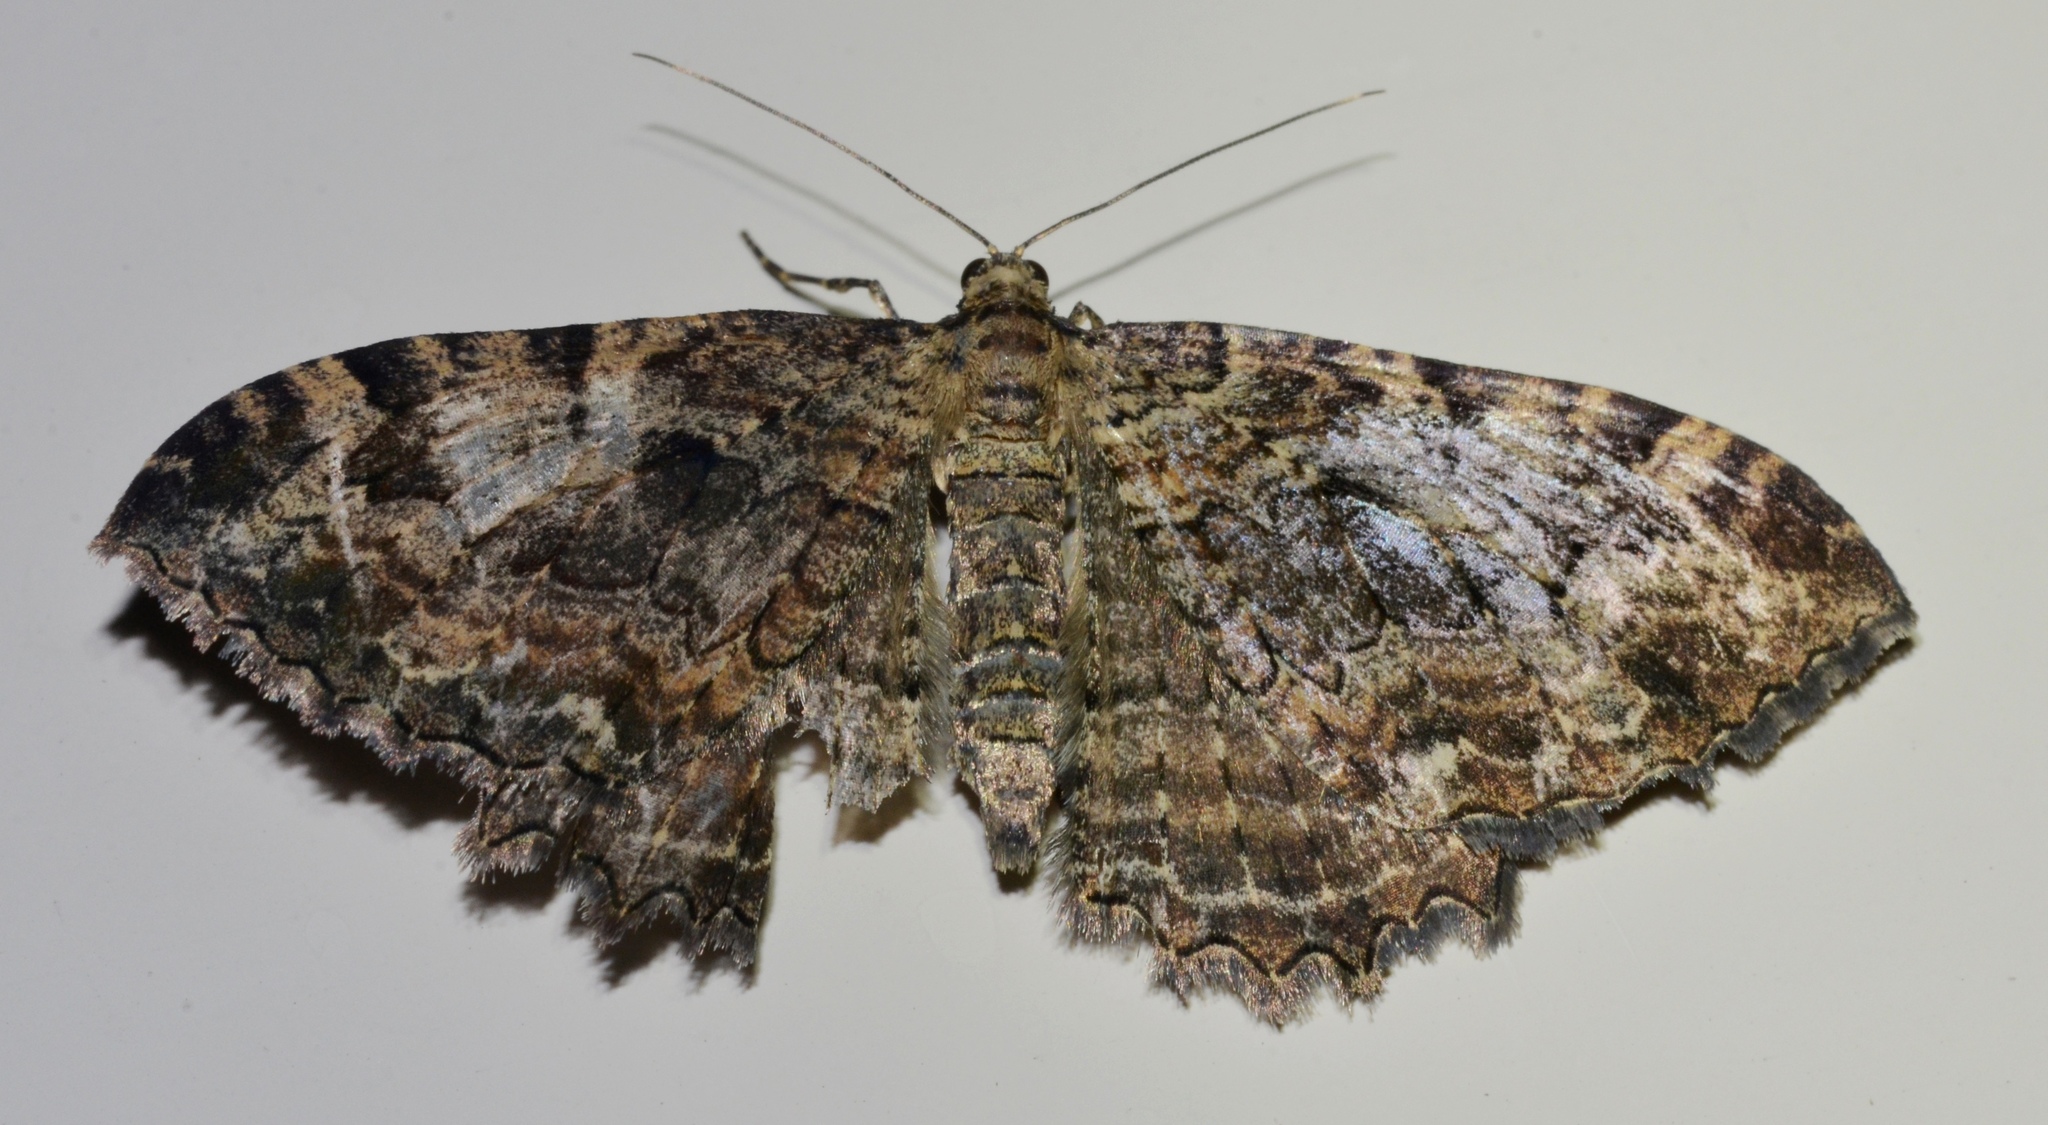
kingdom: Animalia
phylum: Arthropoda
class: Insecta
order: Lepidoptera
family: Geometridae
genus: Rheumaptera
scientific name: Rheumaptera
